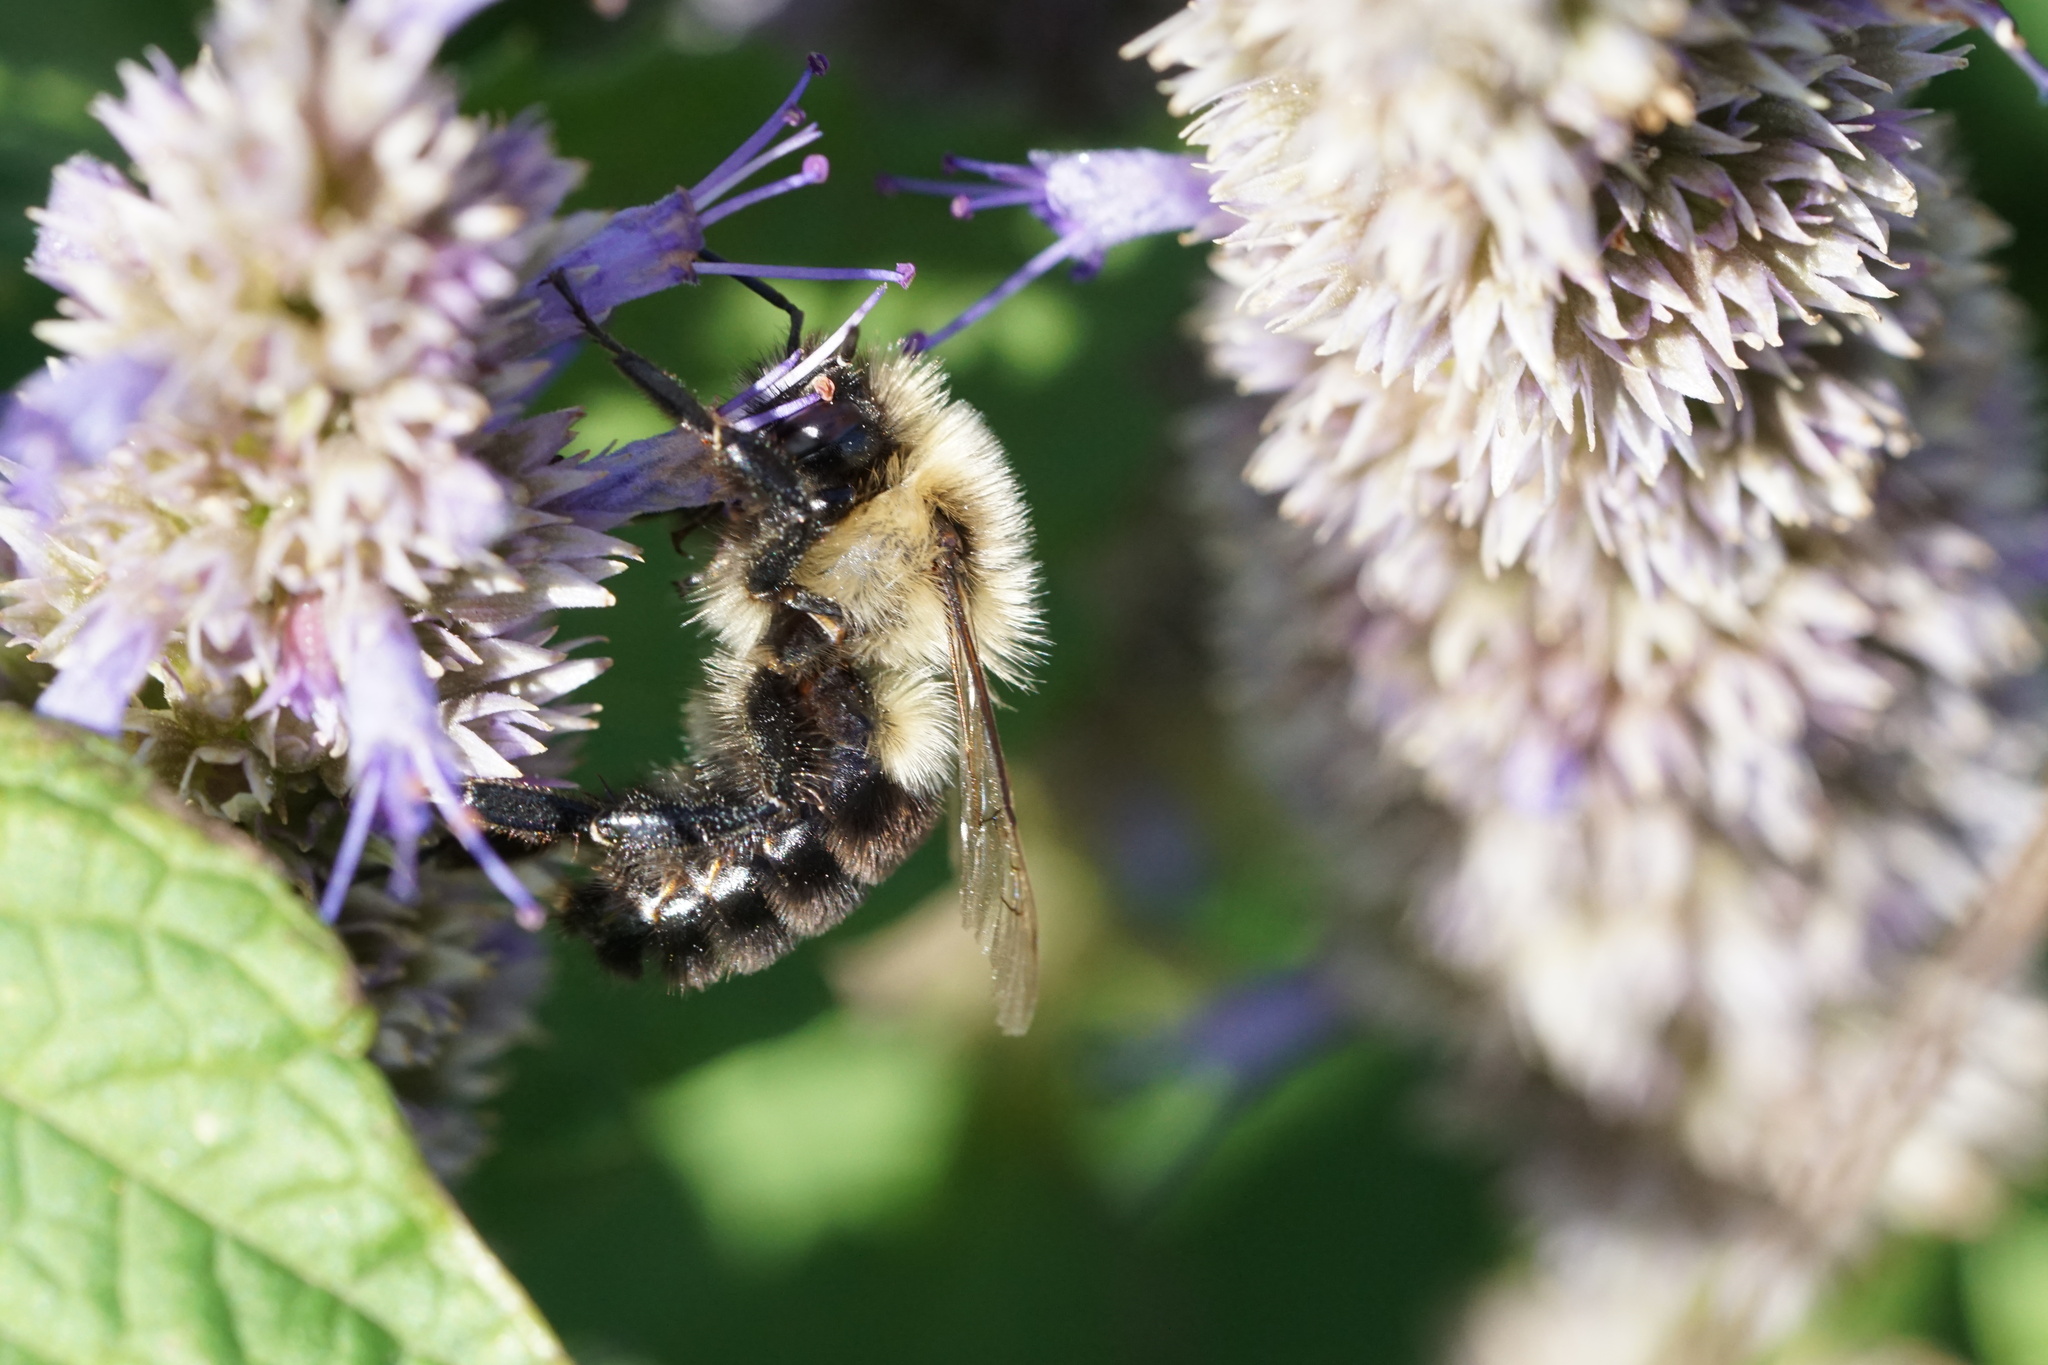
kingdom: Animalia
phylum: Arthropoda
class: Insecta
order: Hymenoptera
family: Apidae
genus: Bombus
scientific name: Bombus impatiens
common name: Common eastern bumble bee
